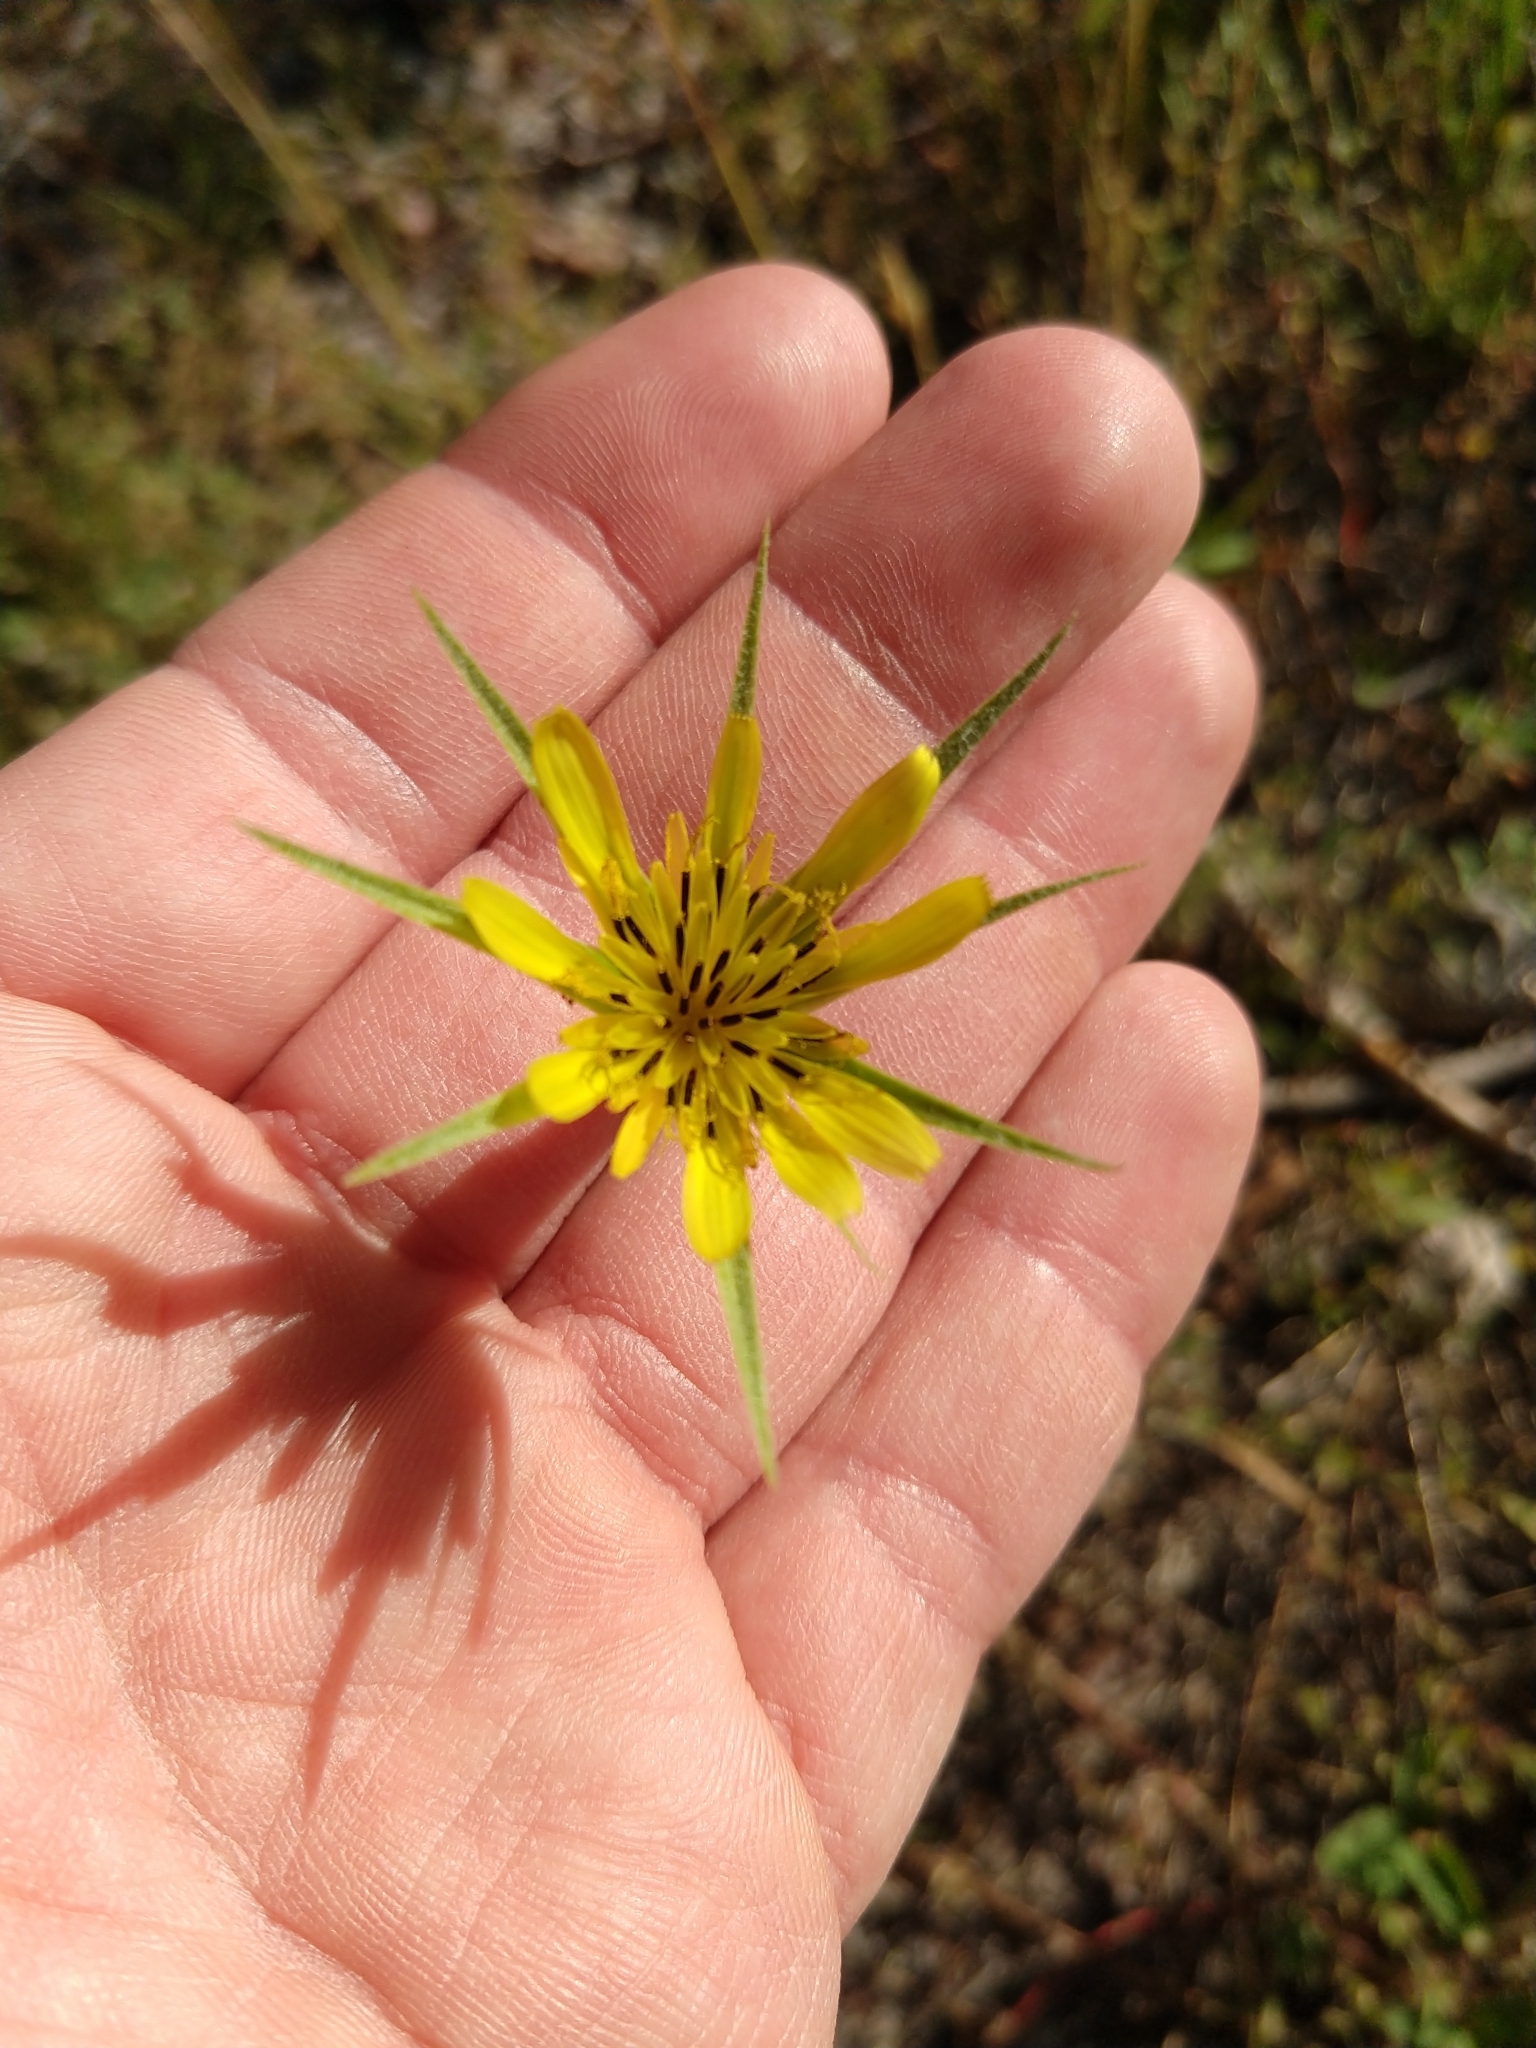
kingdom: Plantae
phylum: Tracheophyta
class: Magnoliopsida
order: Asterales
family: Asteraceae
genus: Tragopogon
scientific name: Tragopogon dubius
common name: Yellow salsify
